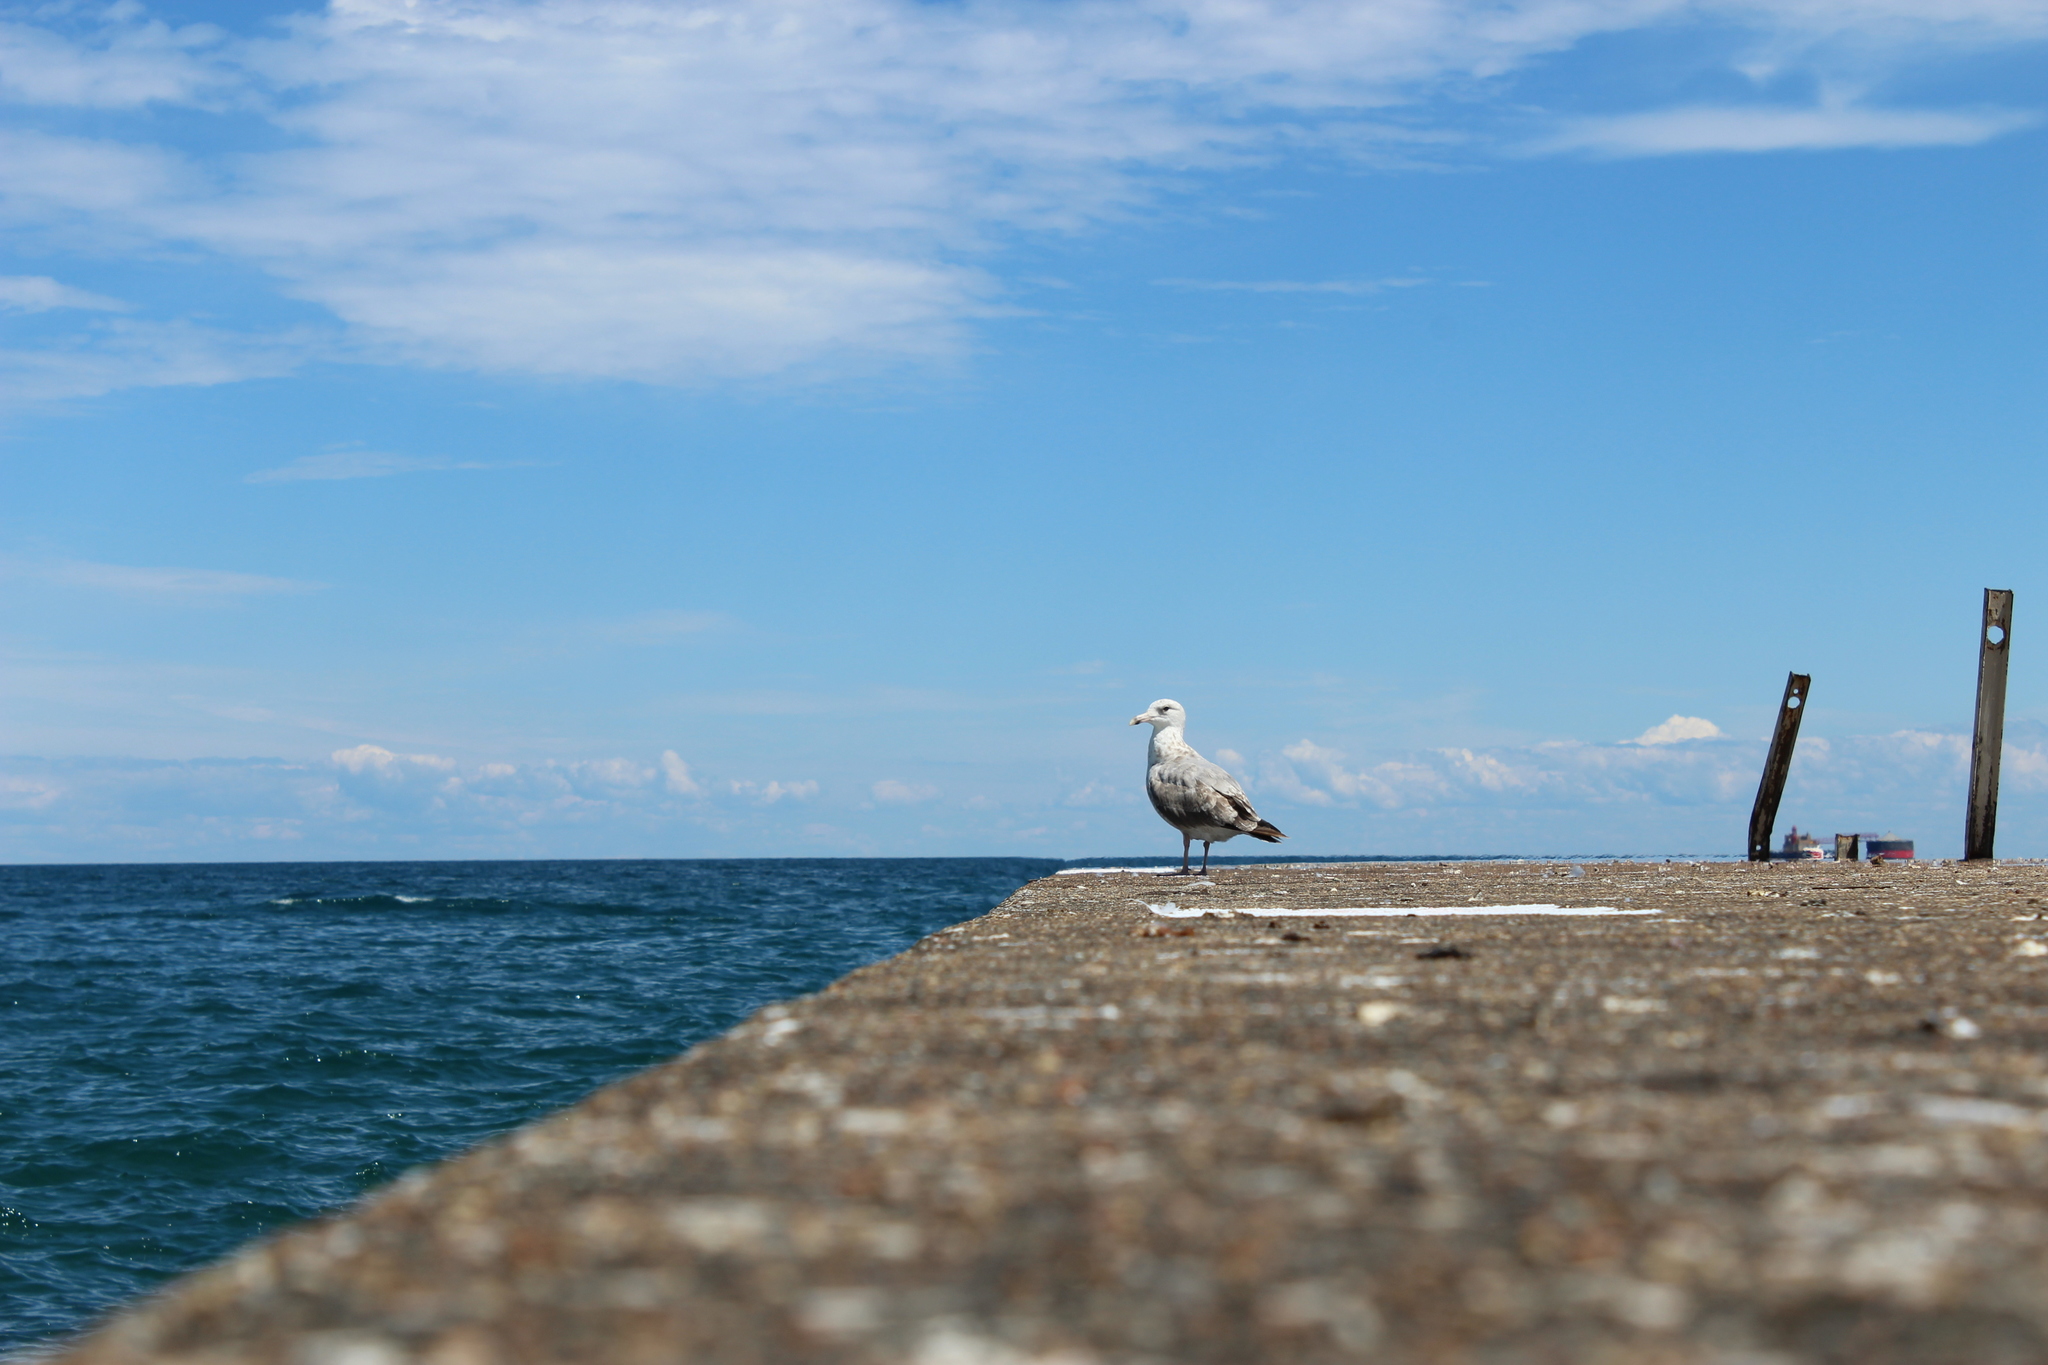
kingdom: Animalia
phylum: Chordata
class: Aves
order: Charadriiformes
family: Laridae
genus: Larus
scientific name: Larus delawarensis
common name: Ring-billed gull
